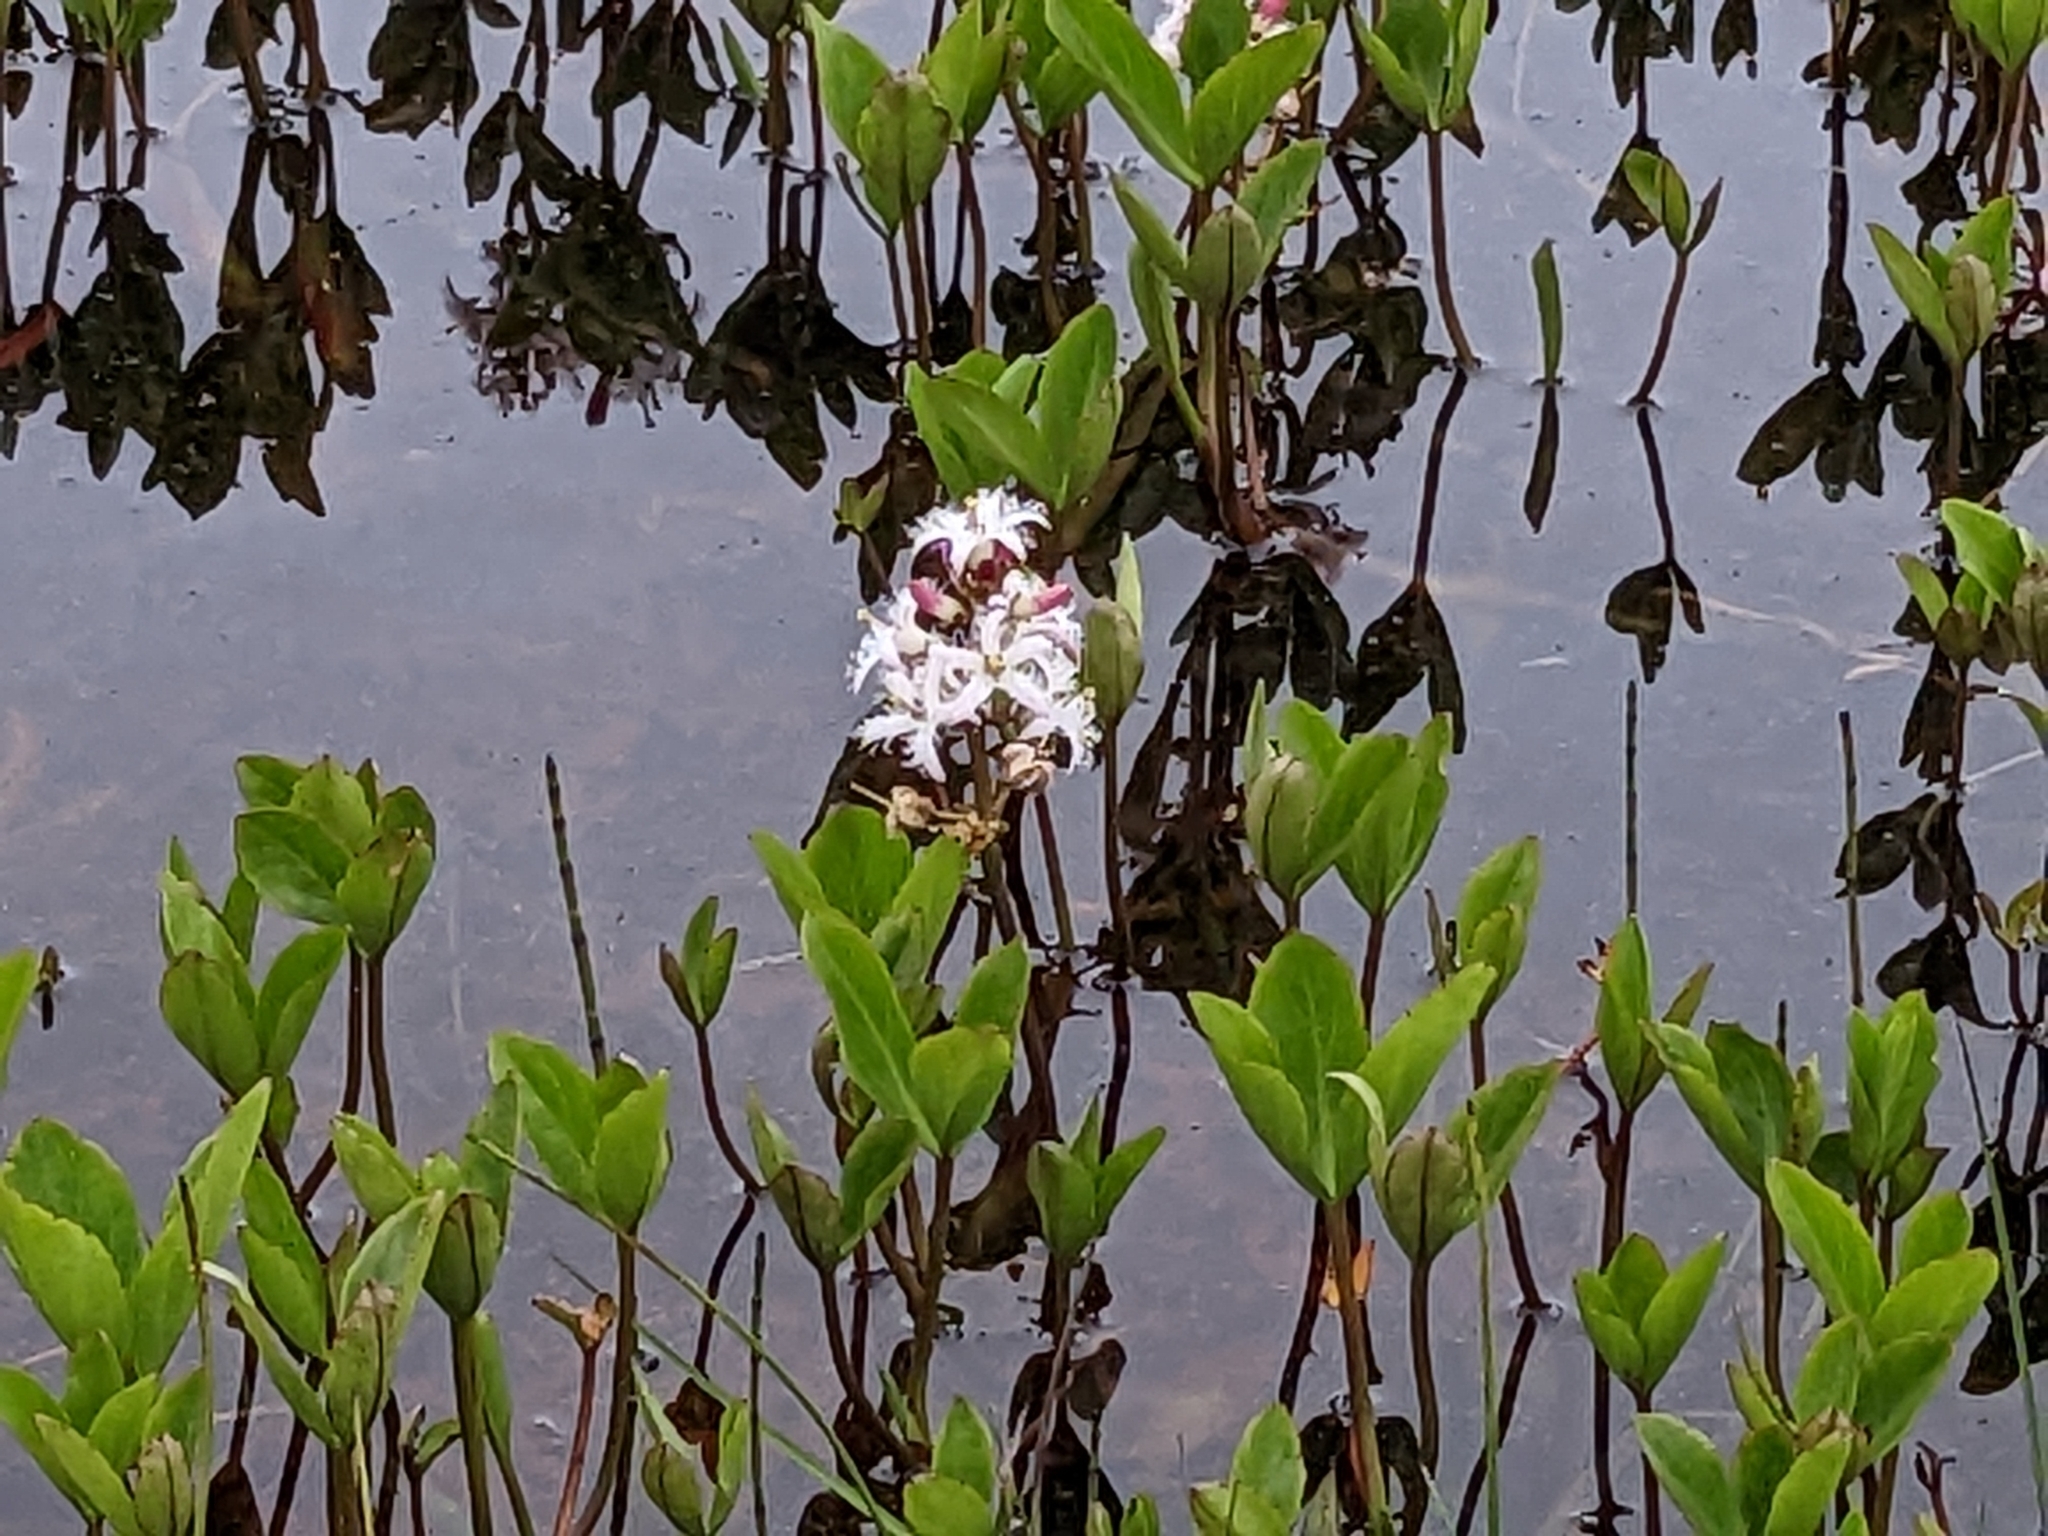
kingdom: Plantae
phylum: Tracheophyta
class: Magnoliopsida
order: Asterales
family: Menyanthaceae
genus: Menyanthes
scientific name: Menyanthes trifoliata
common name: Bogbean
